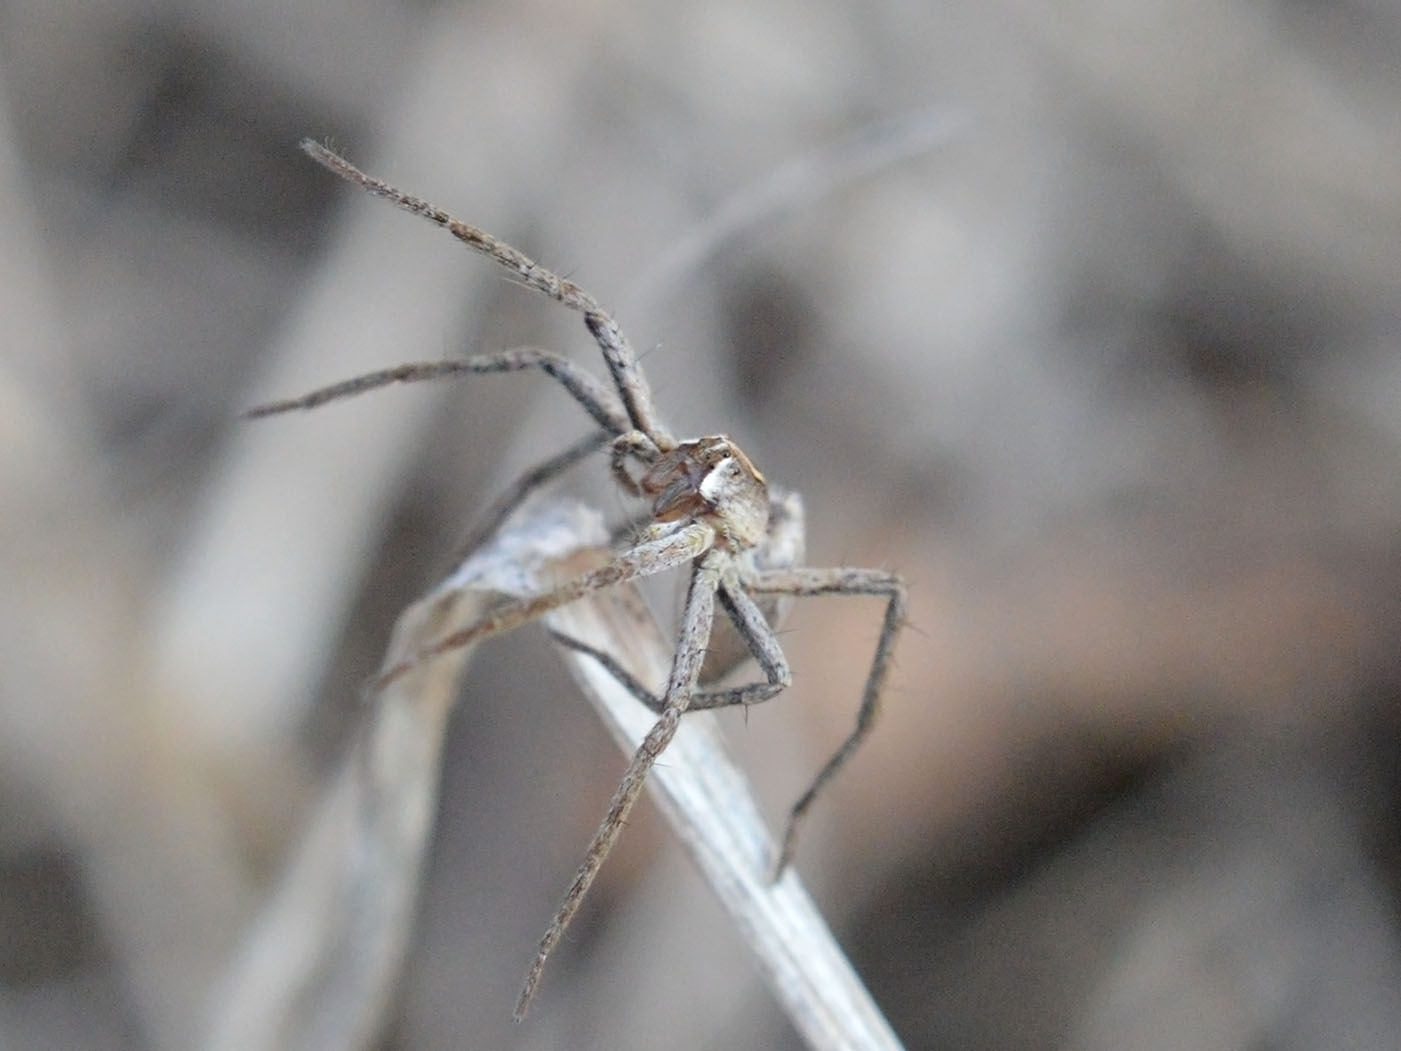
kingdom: Animalia
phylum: Arthropoda
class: Arachnida
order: Araneae
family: Pisauridae
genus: Pisaura
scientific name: Pisaura
